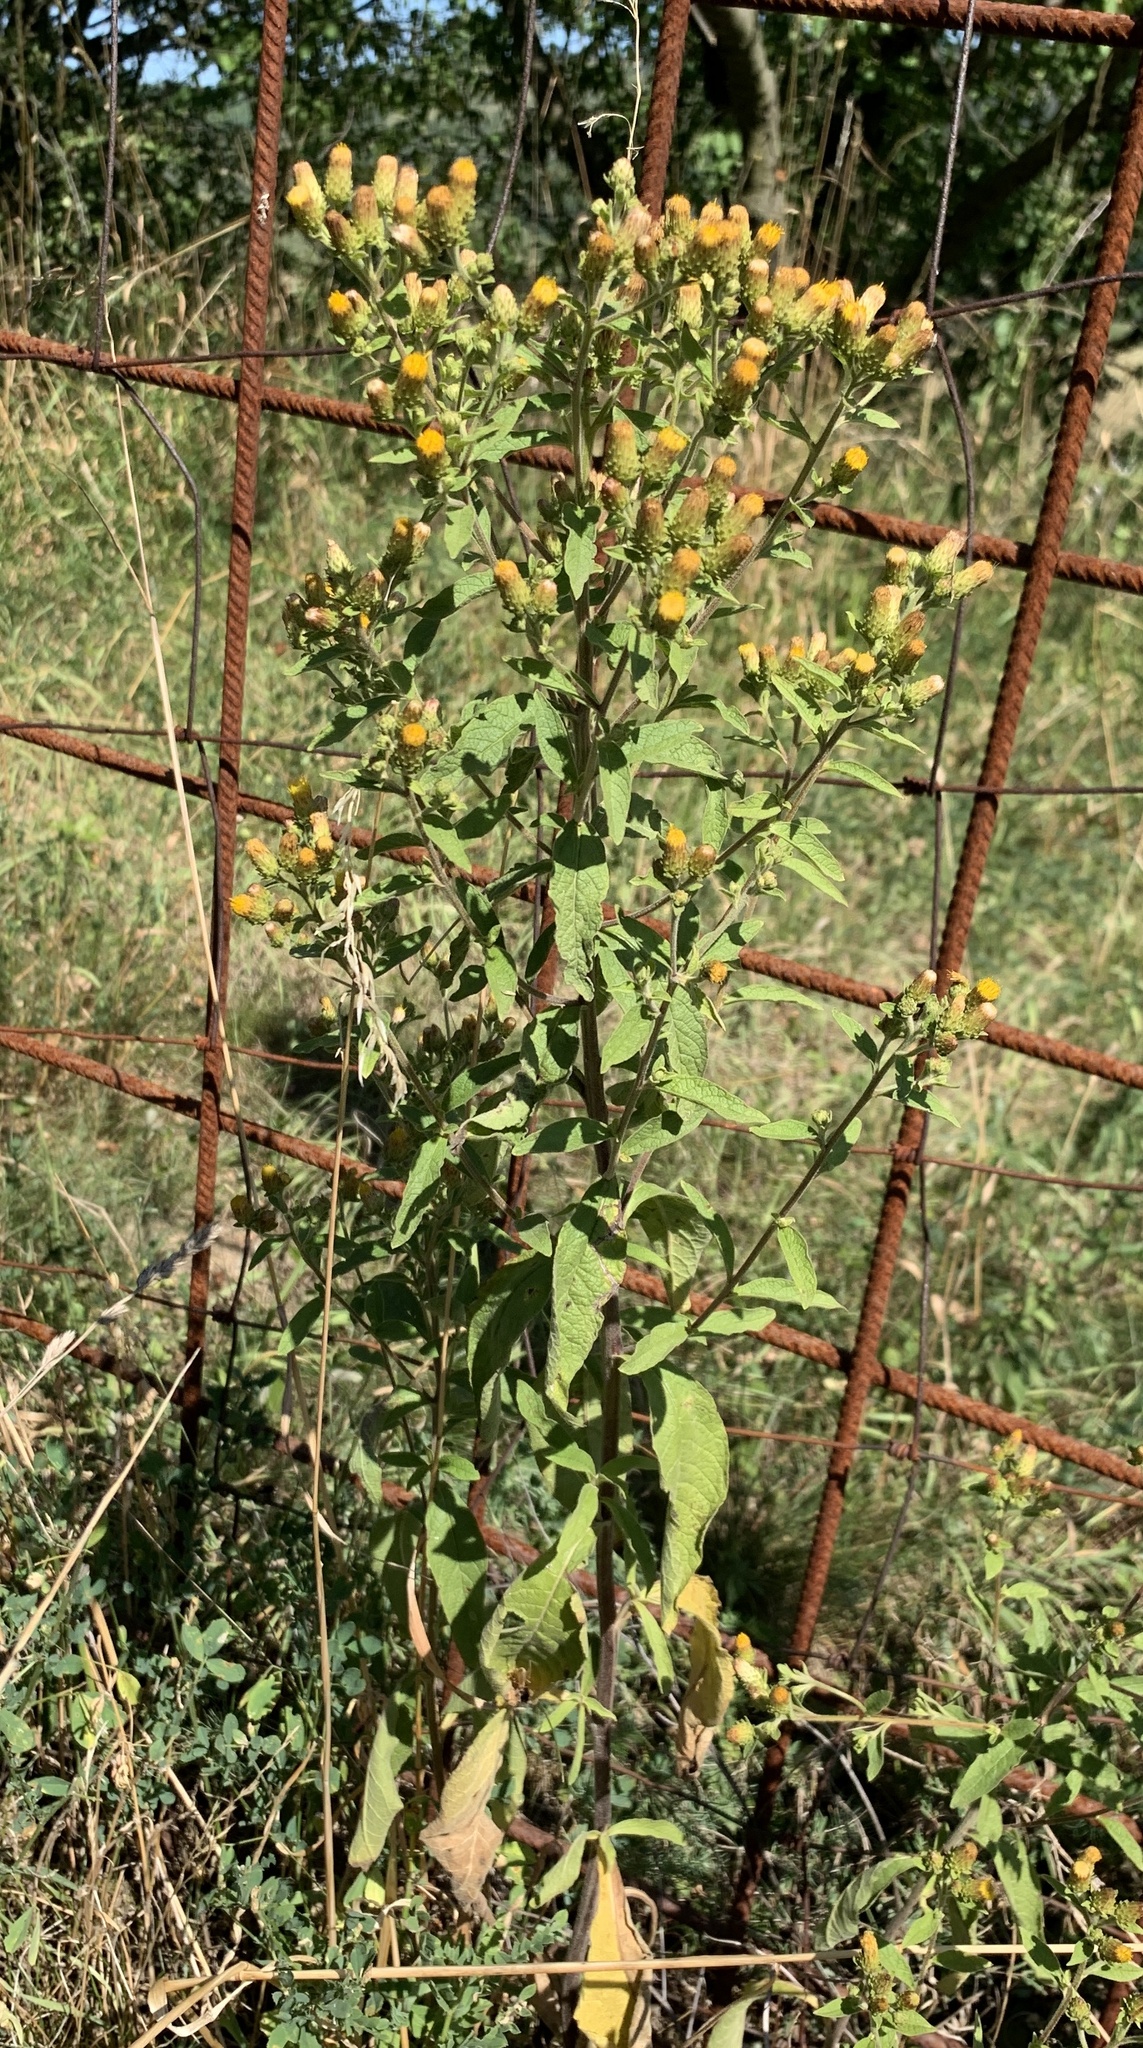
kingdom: Plantae
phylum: Tracheophyta
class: Magnoliopsida
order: Asterales
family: Asteraceae
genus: Pentanema
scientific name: Pentanema squarrosum
